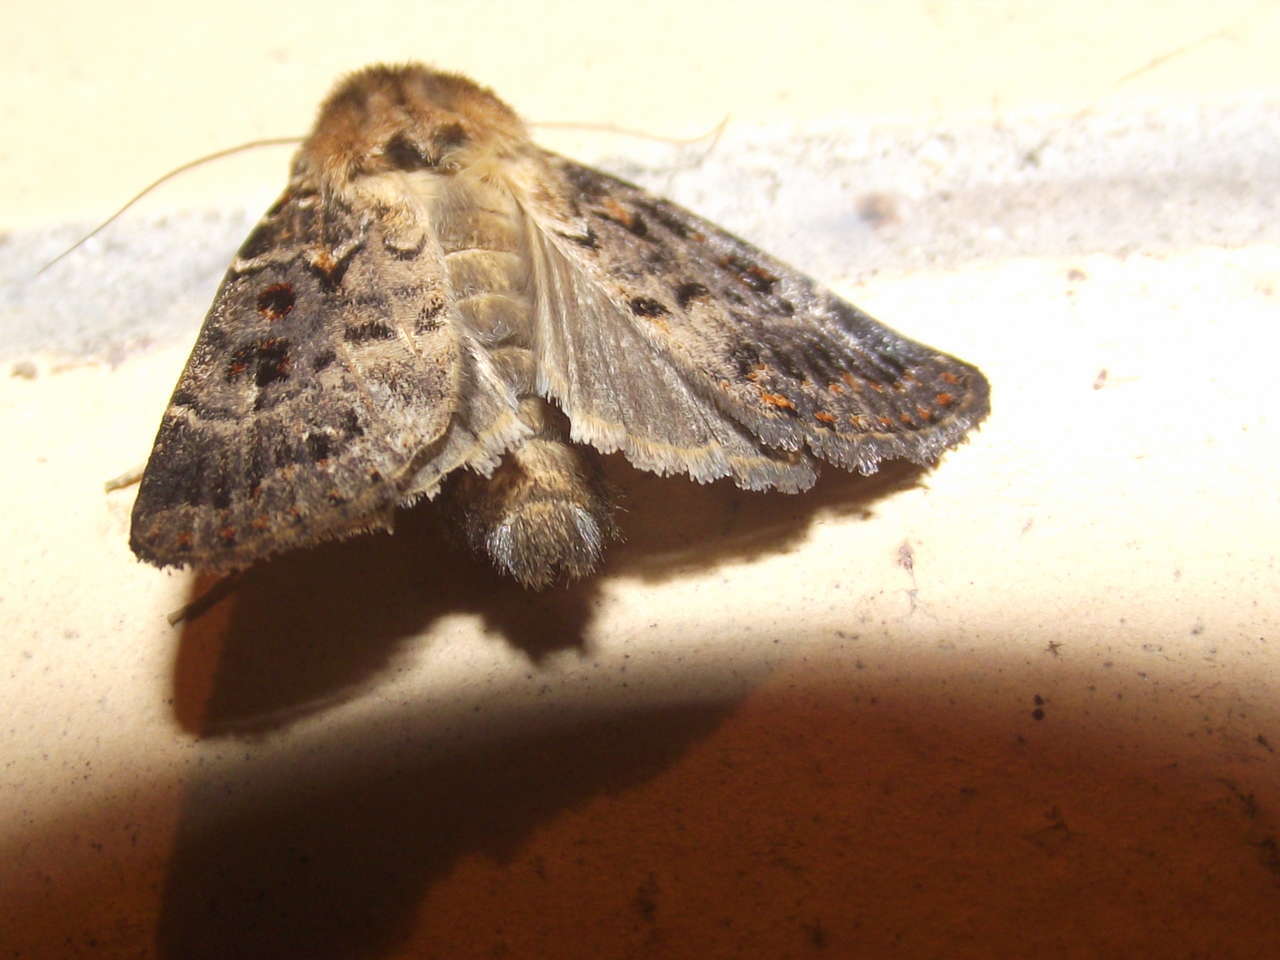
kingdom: Animalia
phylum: Arthropoda
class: Insecta
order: Lepidoptera
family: Noctuidae
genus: Proteuxoa
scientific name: Proteuxoa sanguinipuncta
